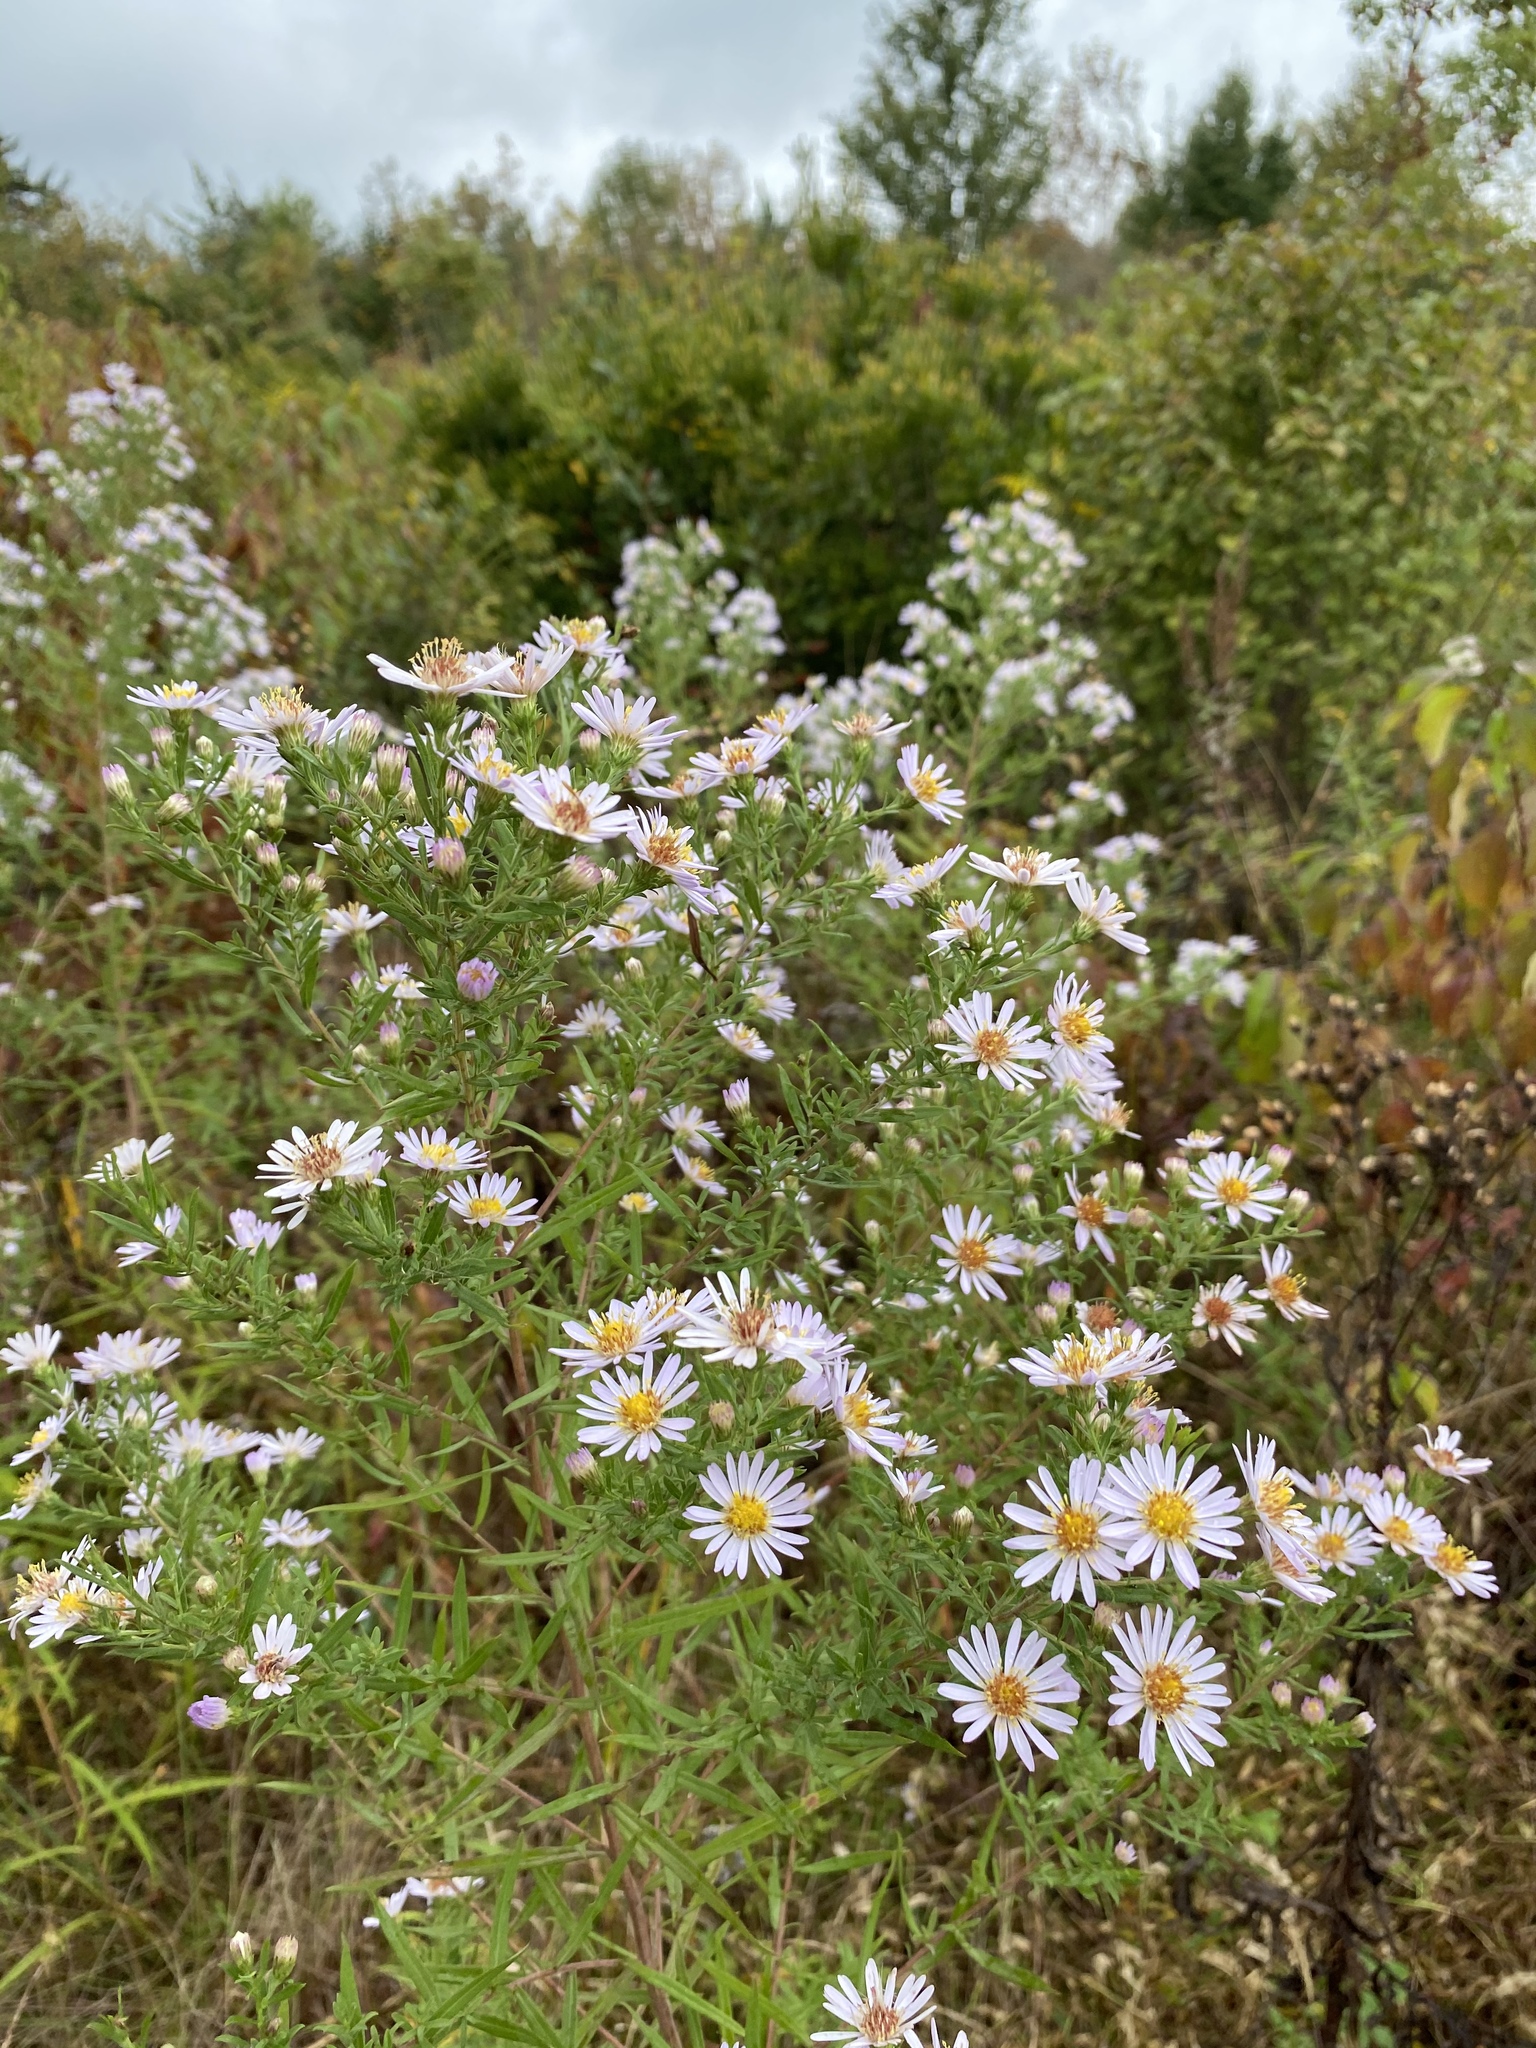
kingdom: Plantae
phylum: Tracheophyta
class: Magnoliopsida
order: Asterales
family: Asteraceae
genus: Symphyotrichum
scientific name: Symphyotrichum praealtum
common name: Willow aster
